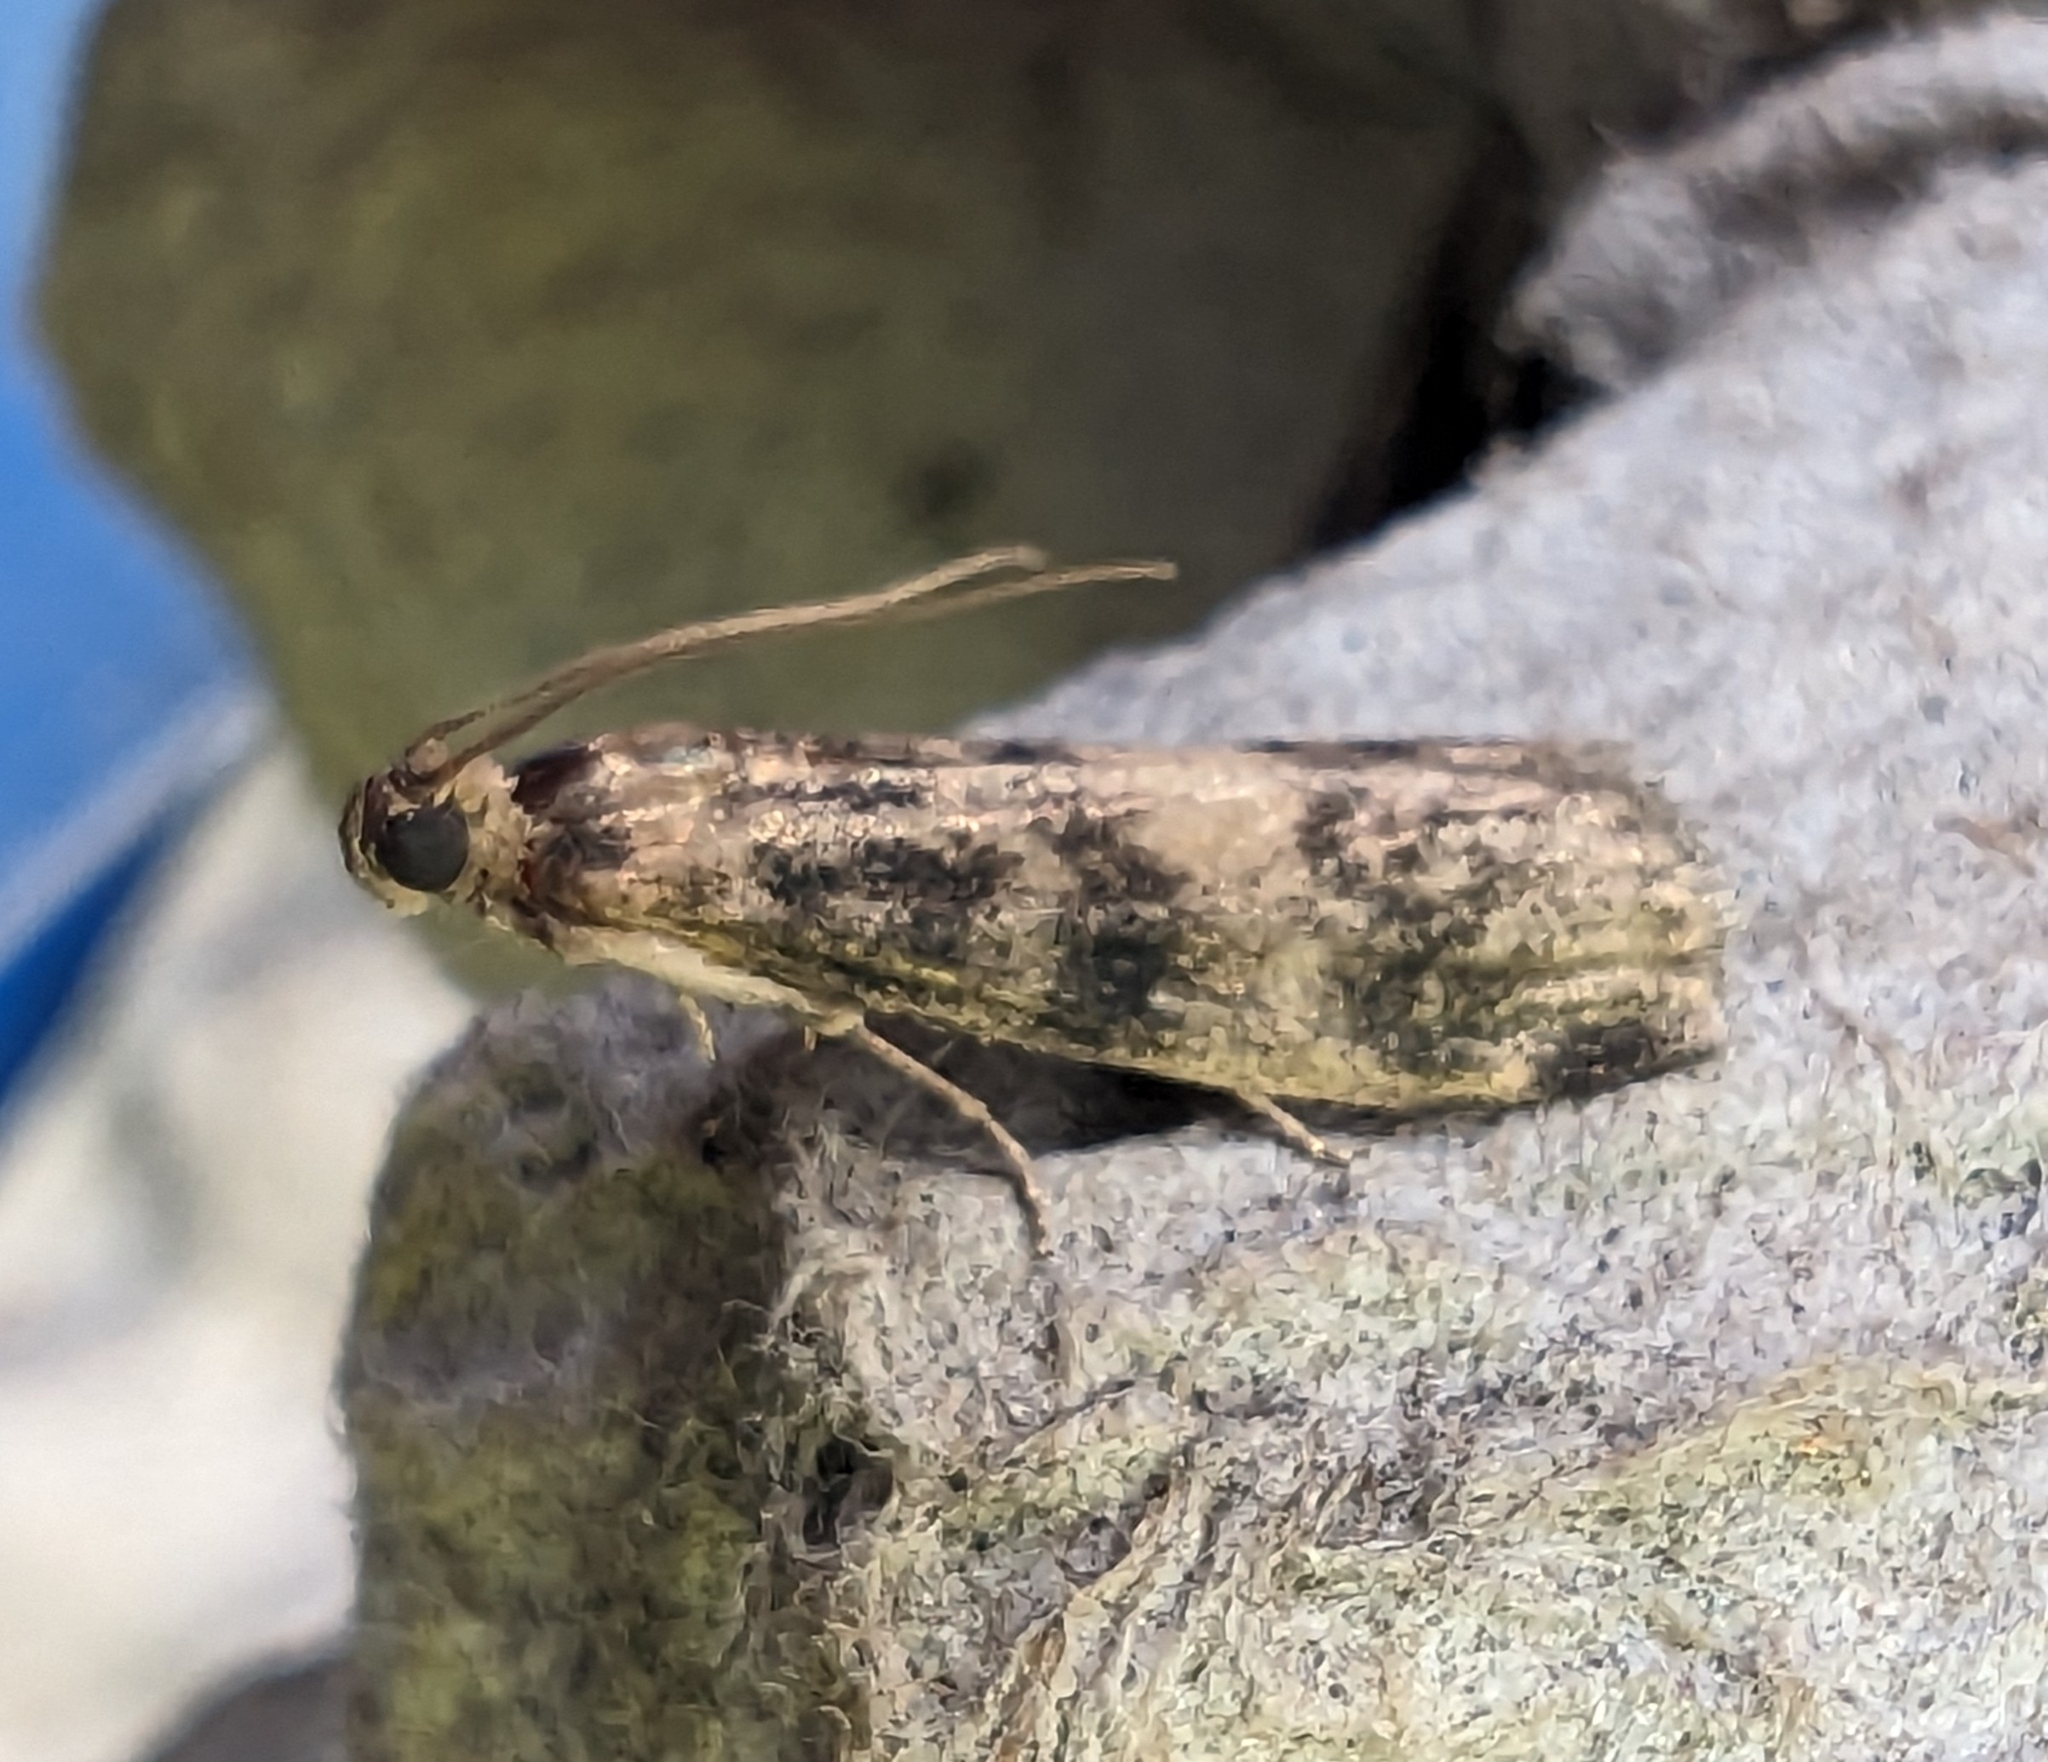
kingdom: Animalia
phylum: Arthropoda
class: Insecta
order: Lepidoptera
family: Pyralidae
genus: Euzophera
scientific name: Euzophera pinguis
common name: Ash-bark knot-horn
